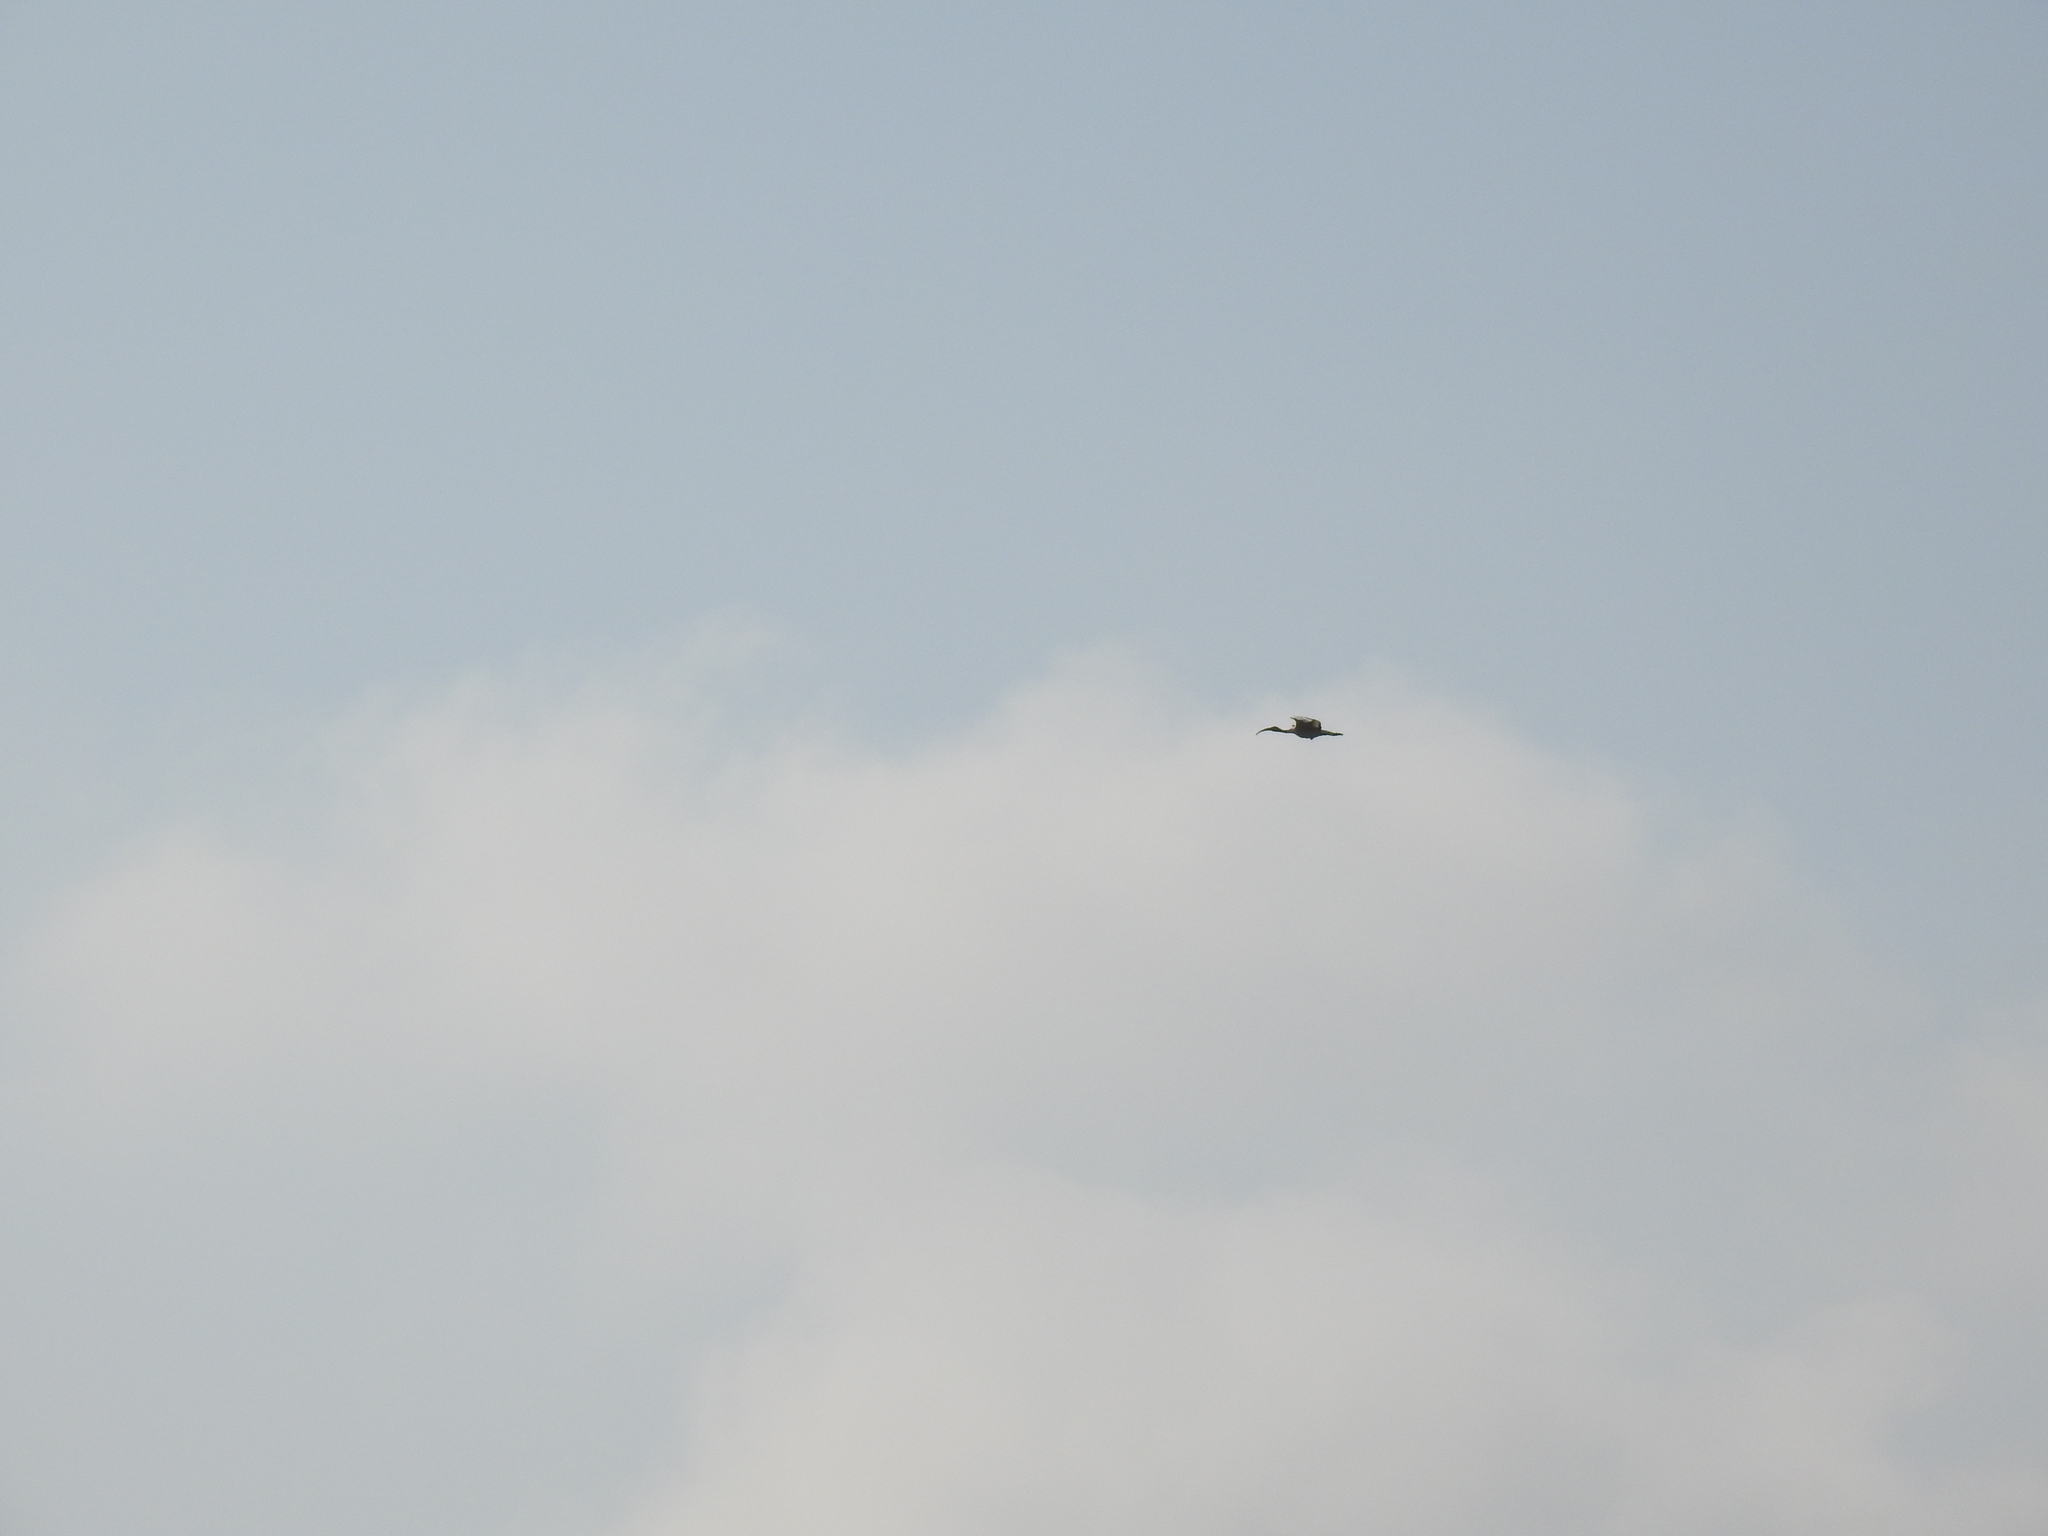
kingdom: Animalia
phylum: Chordata
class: Aves
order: Pelecaniformes
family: Threskiornithidae
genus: Threskiornis
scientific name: Threskiornis aethiopicus
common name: Sacred ibis
